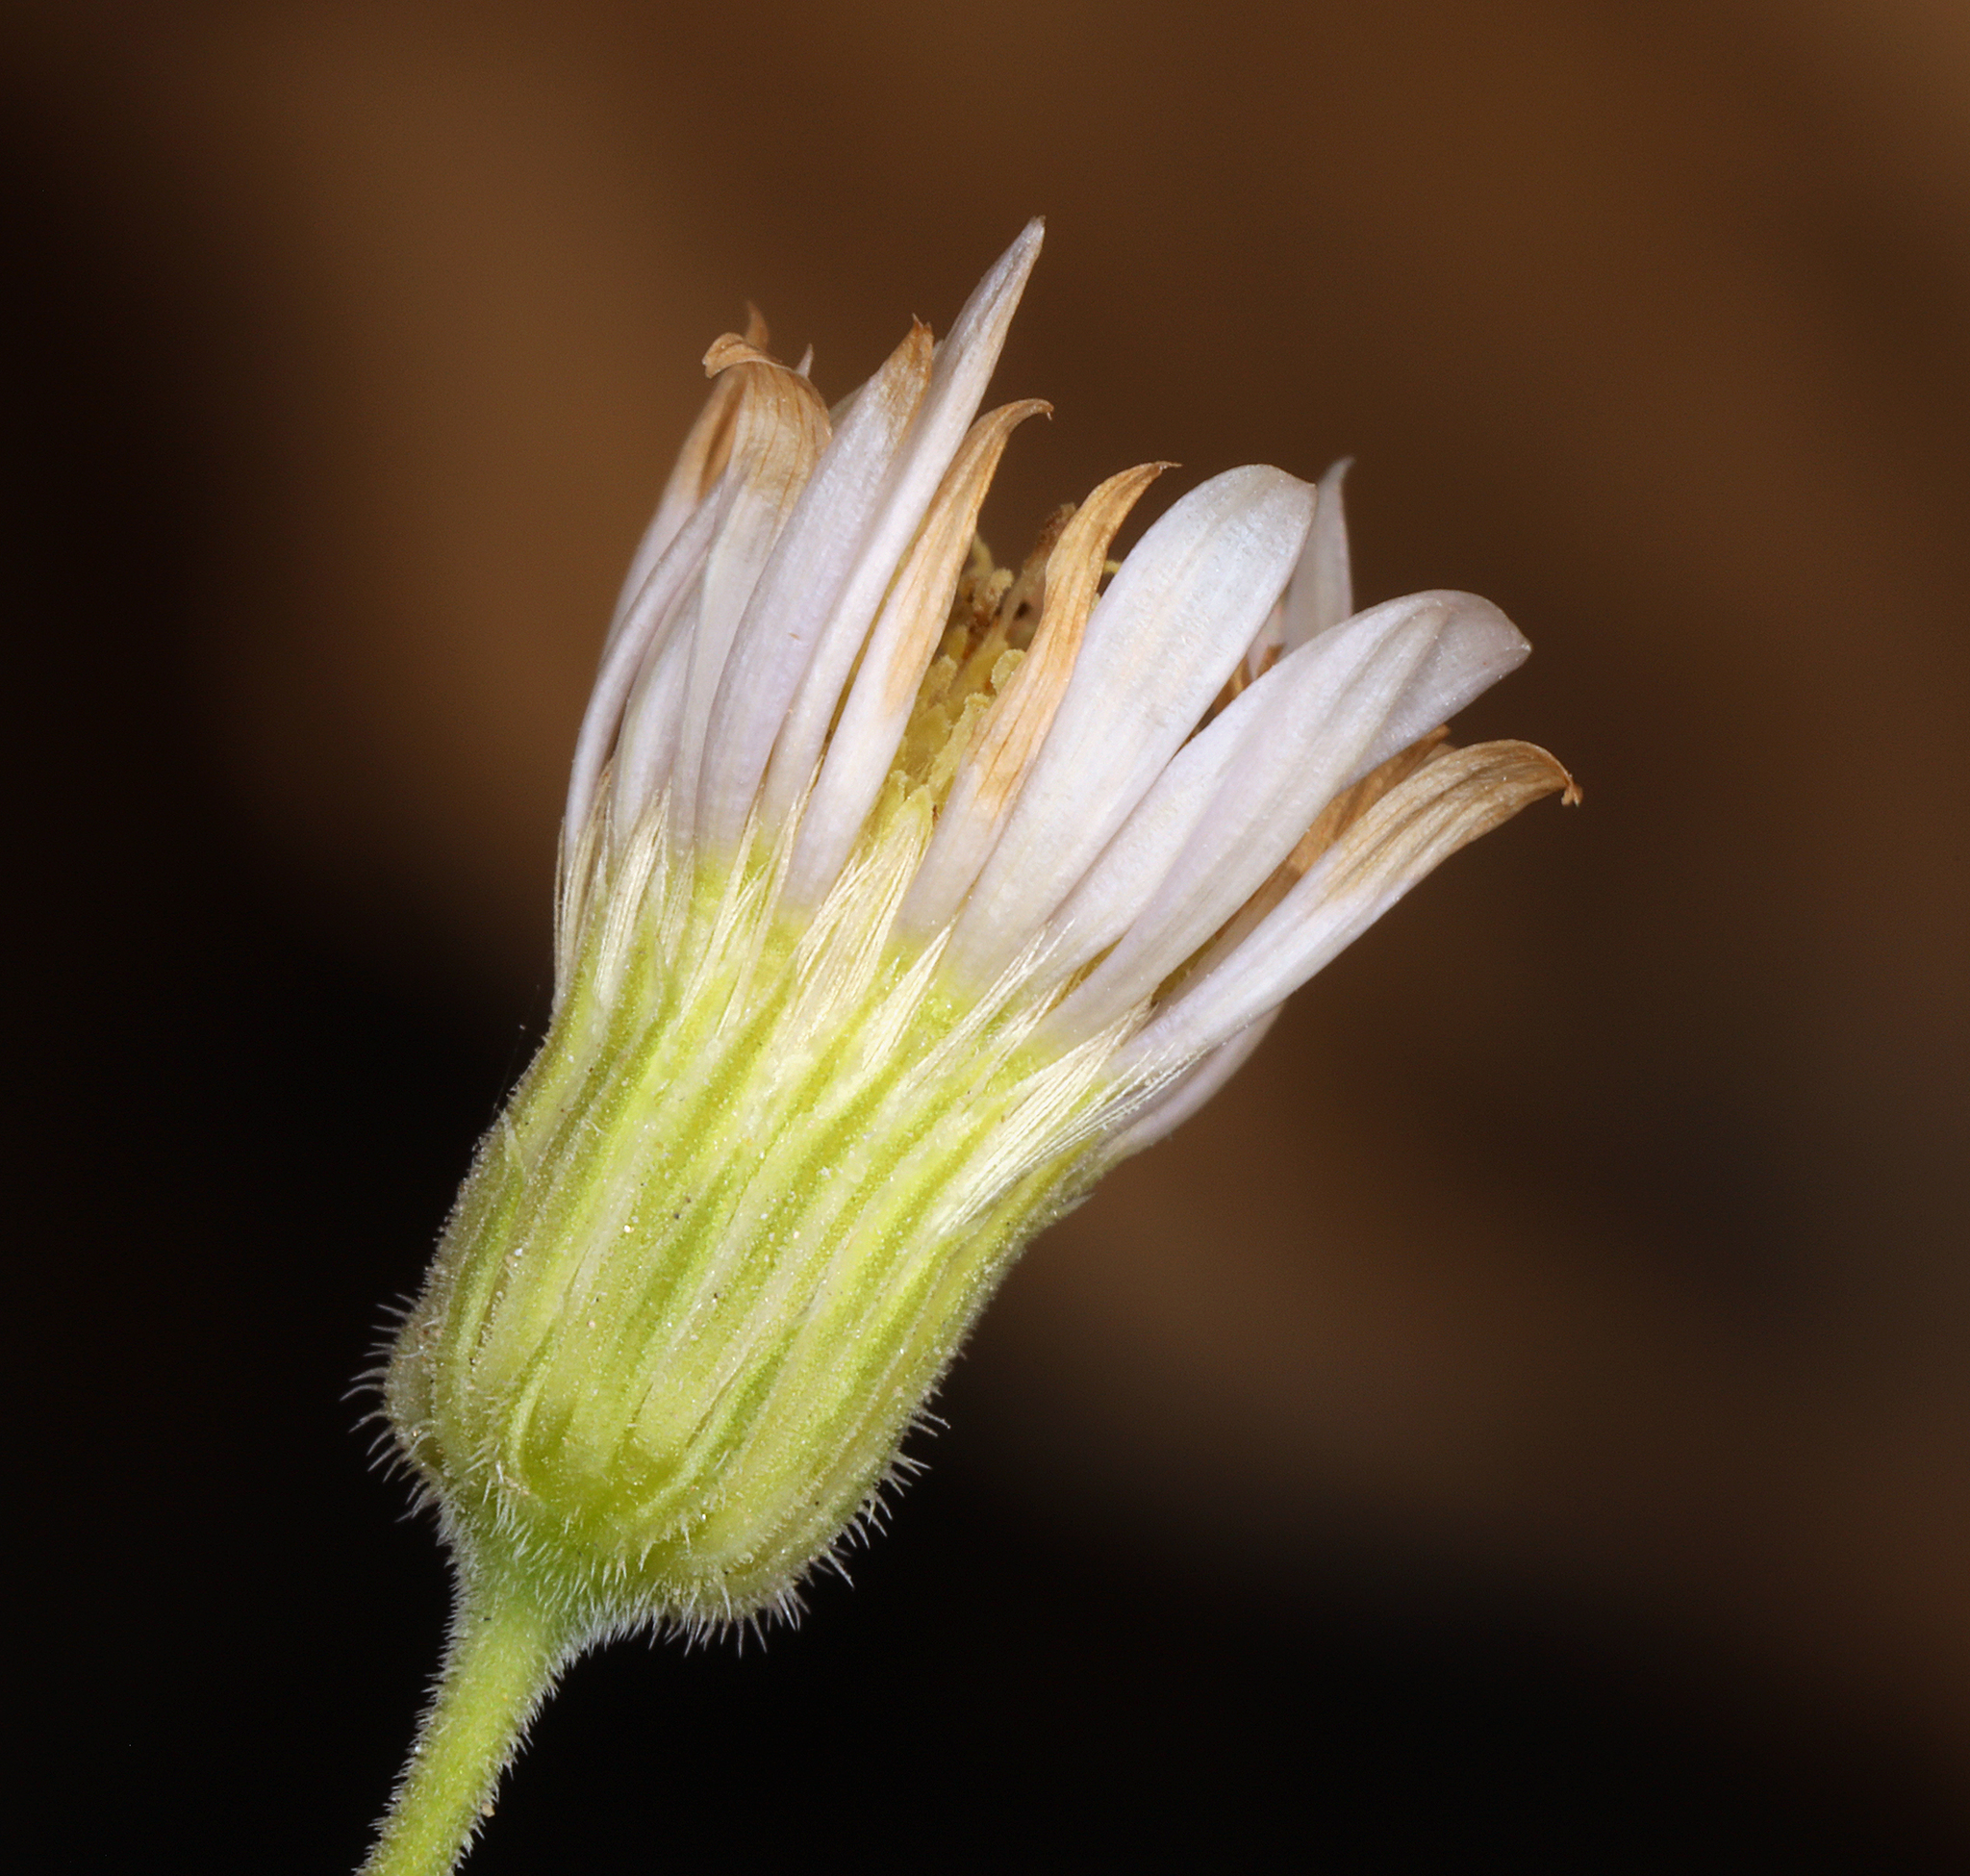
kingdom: Plantae
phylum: Tracheophyta
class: Magnoliopsida
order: Asterales
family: Asteraceae
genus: Erigeron
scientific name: Erigeron breweri
